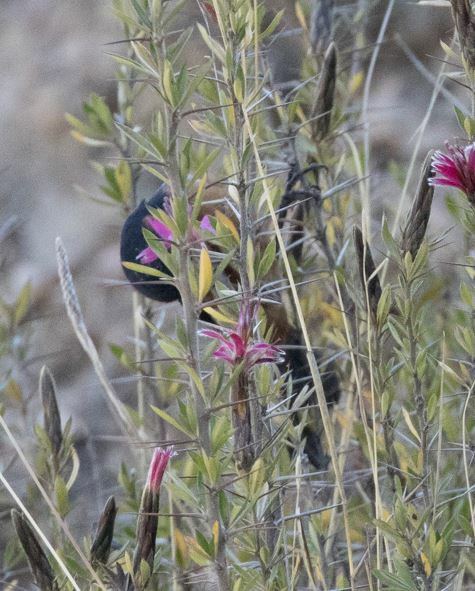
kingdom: Animalia
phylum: Chordata
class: Aves
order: Passeriformes
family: Thraupidae
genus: Diglossa
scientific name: Diglossa brunneiventris
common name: Black-throated flowerpiercer
